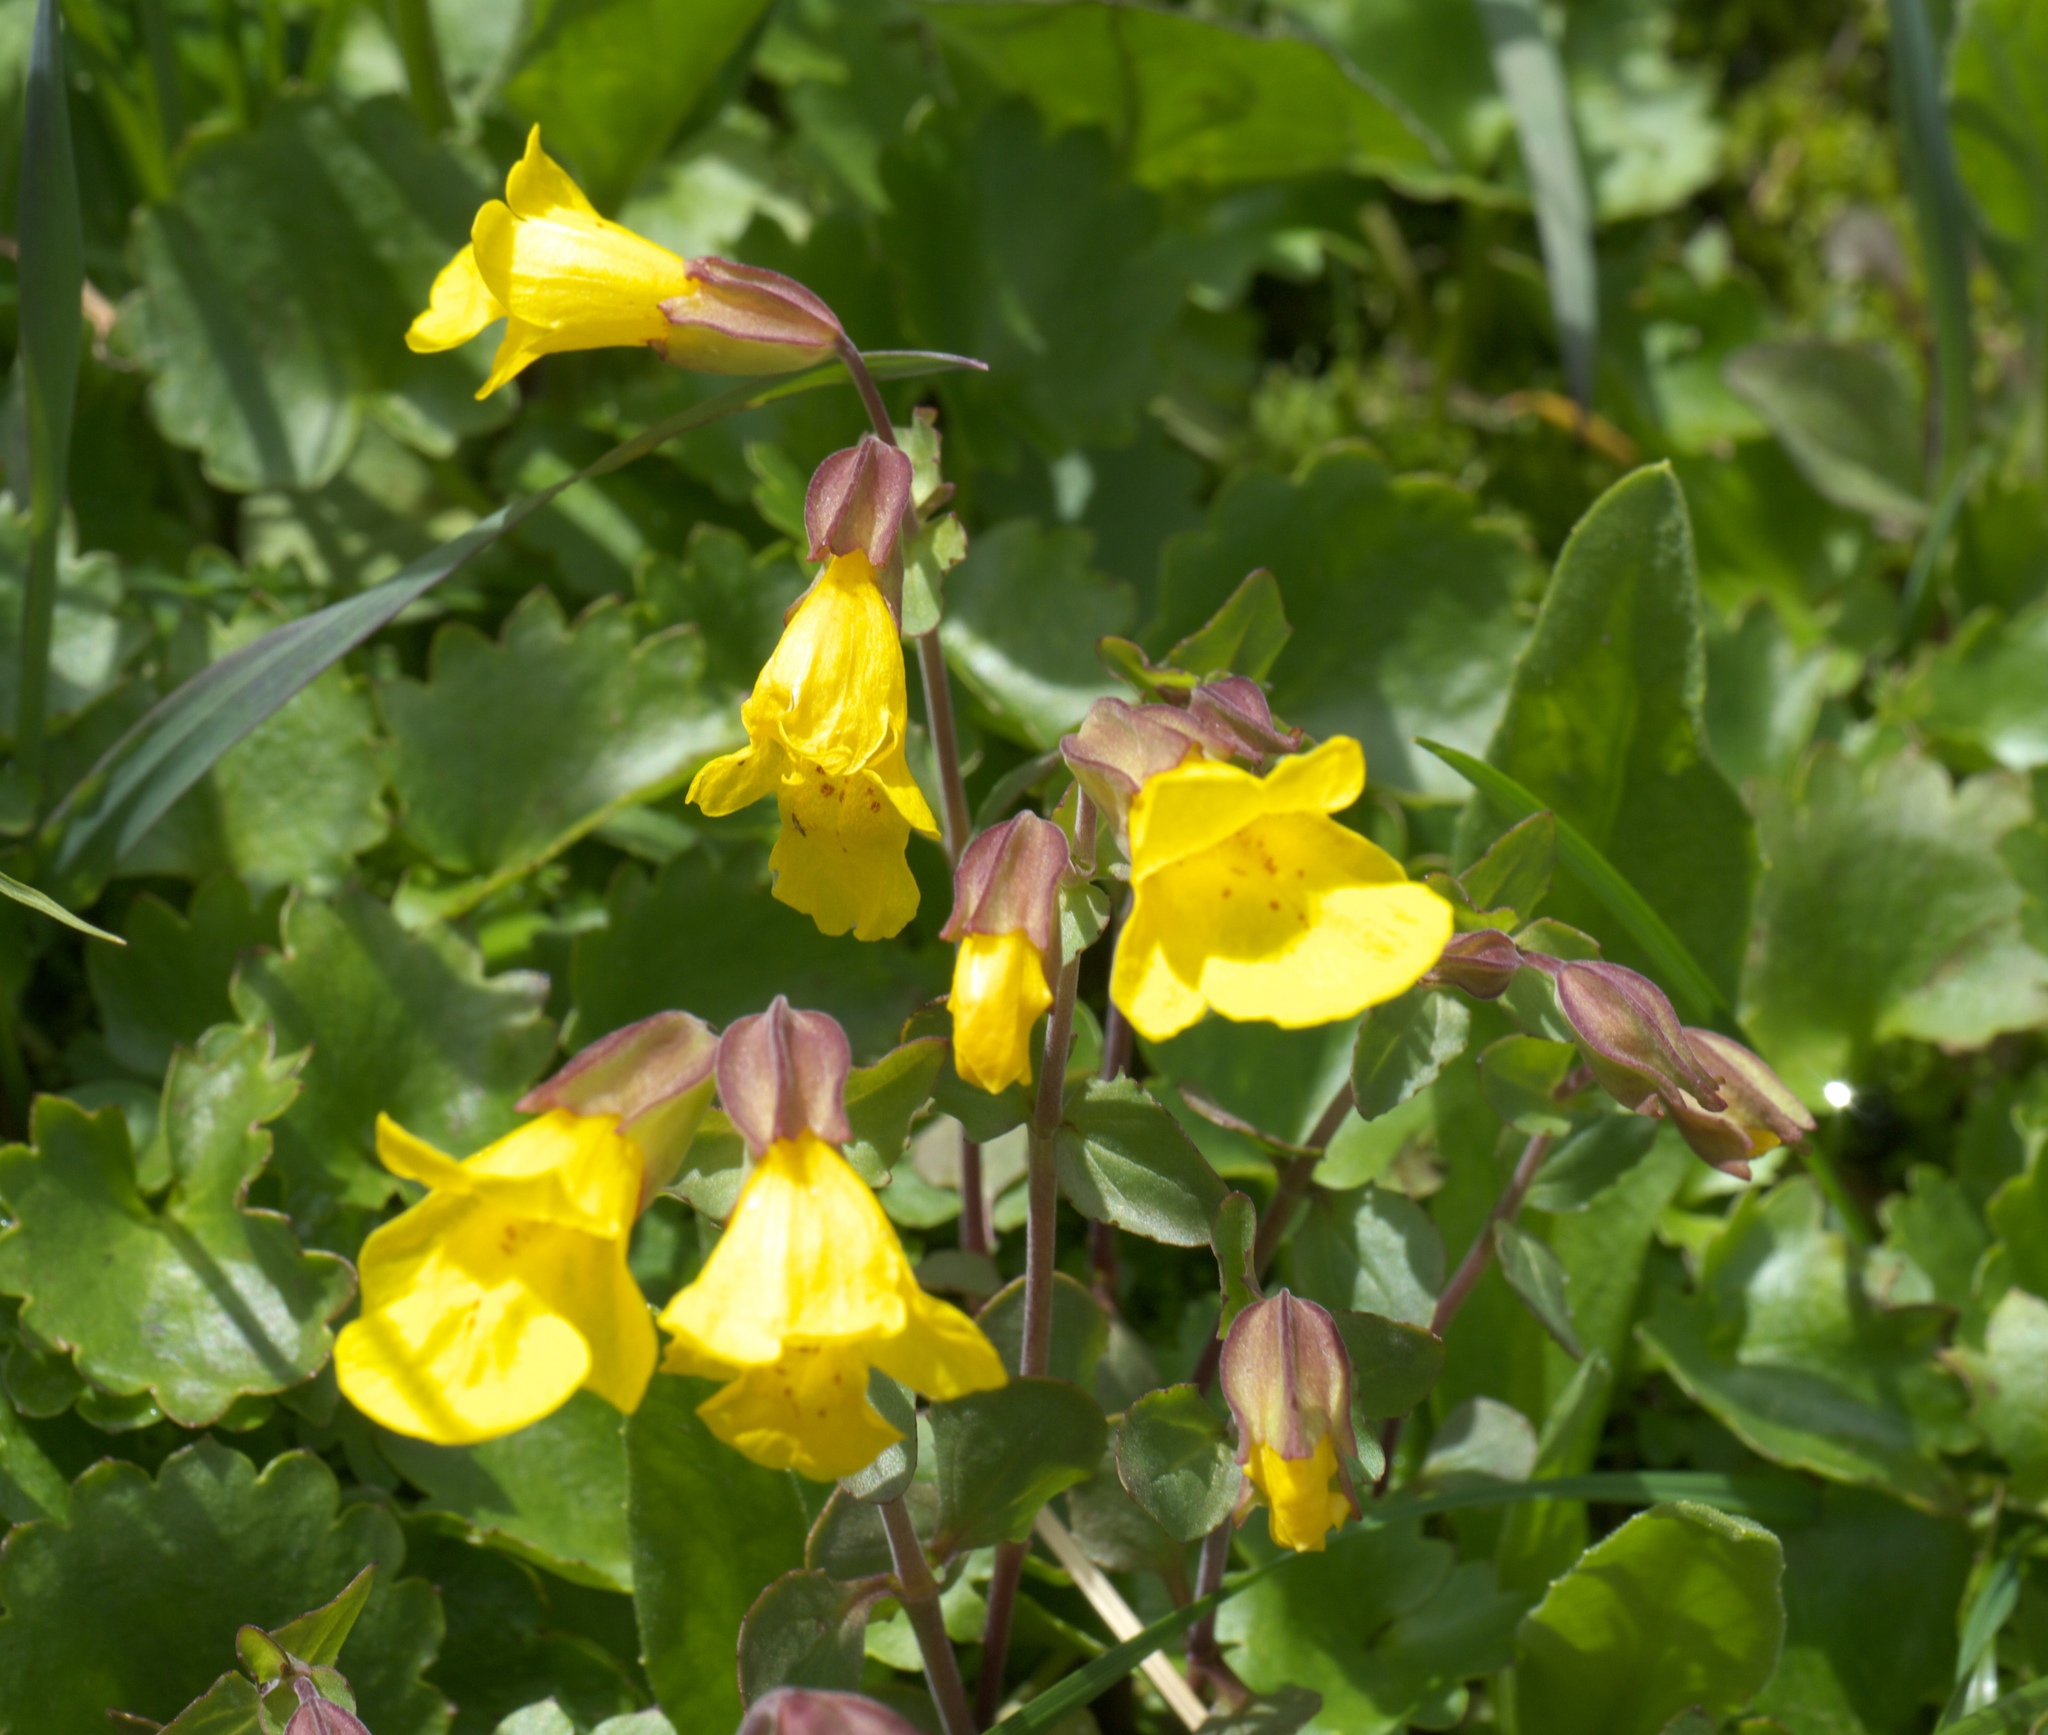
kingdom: Plantae
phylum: Tracheophyta
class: Magnoliopsida
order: Lamiales
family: Phrymaceae
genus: Erythranthe
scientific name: Erythranthe minor
